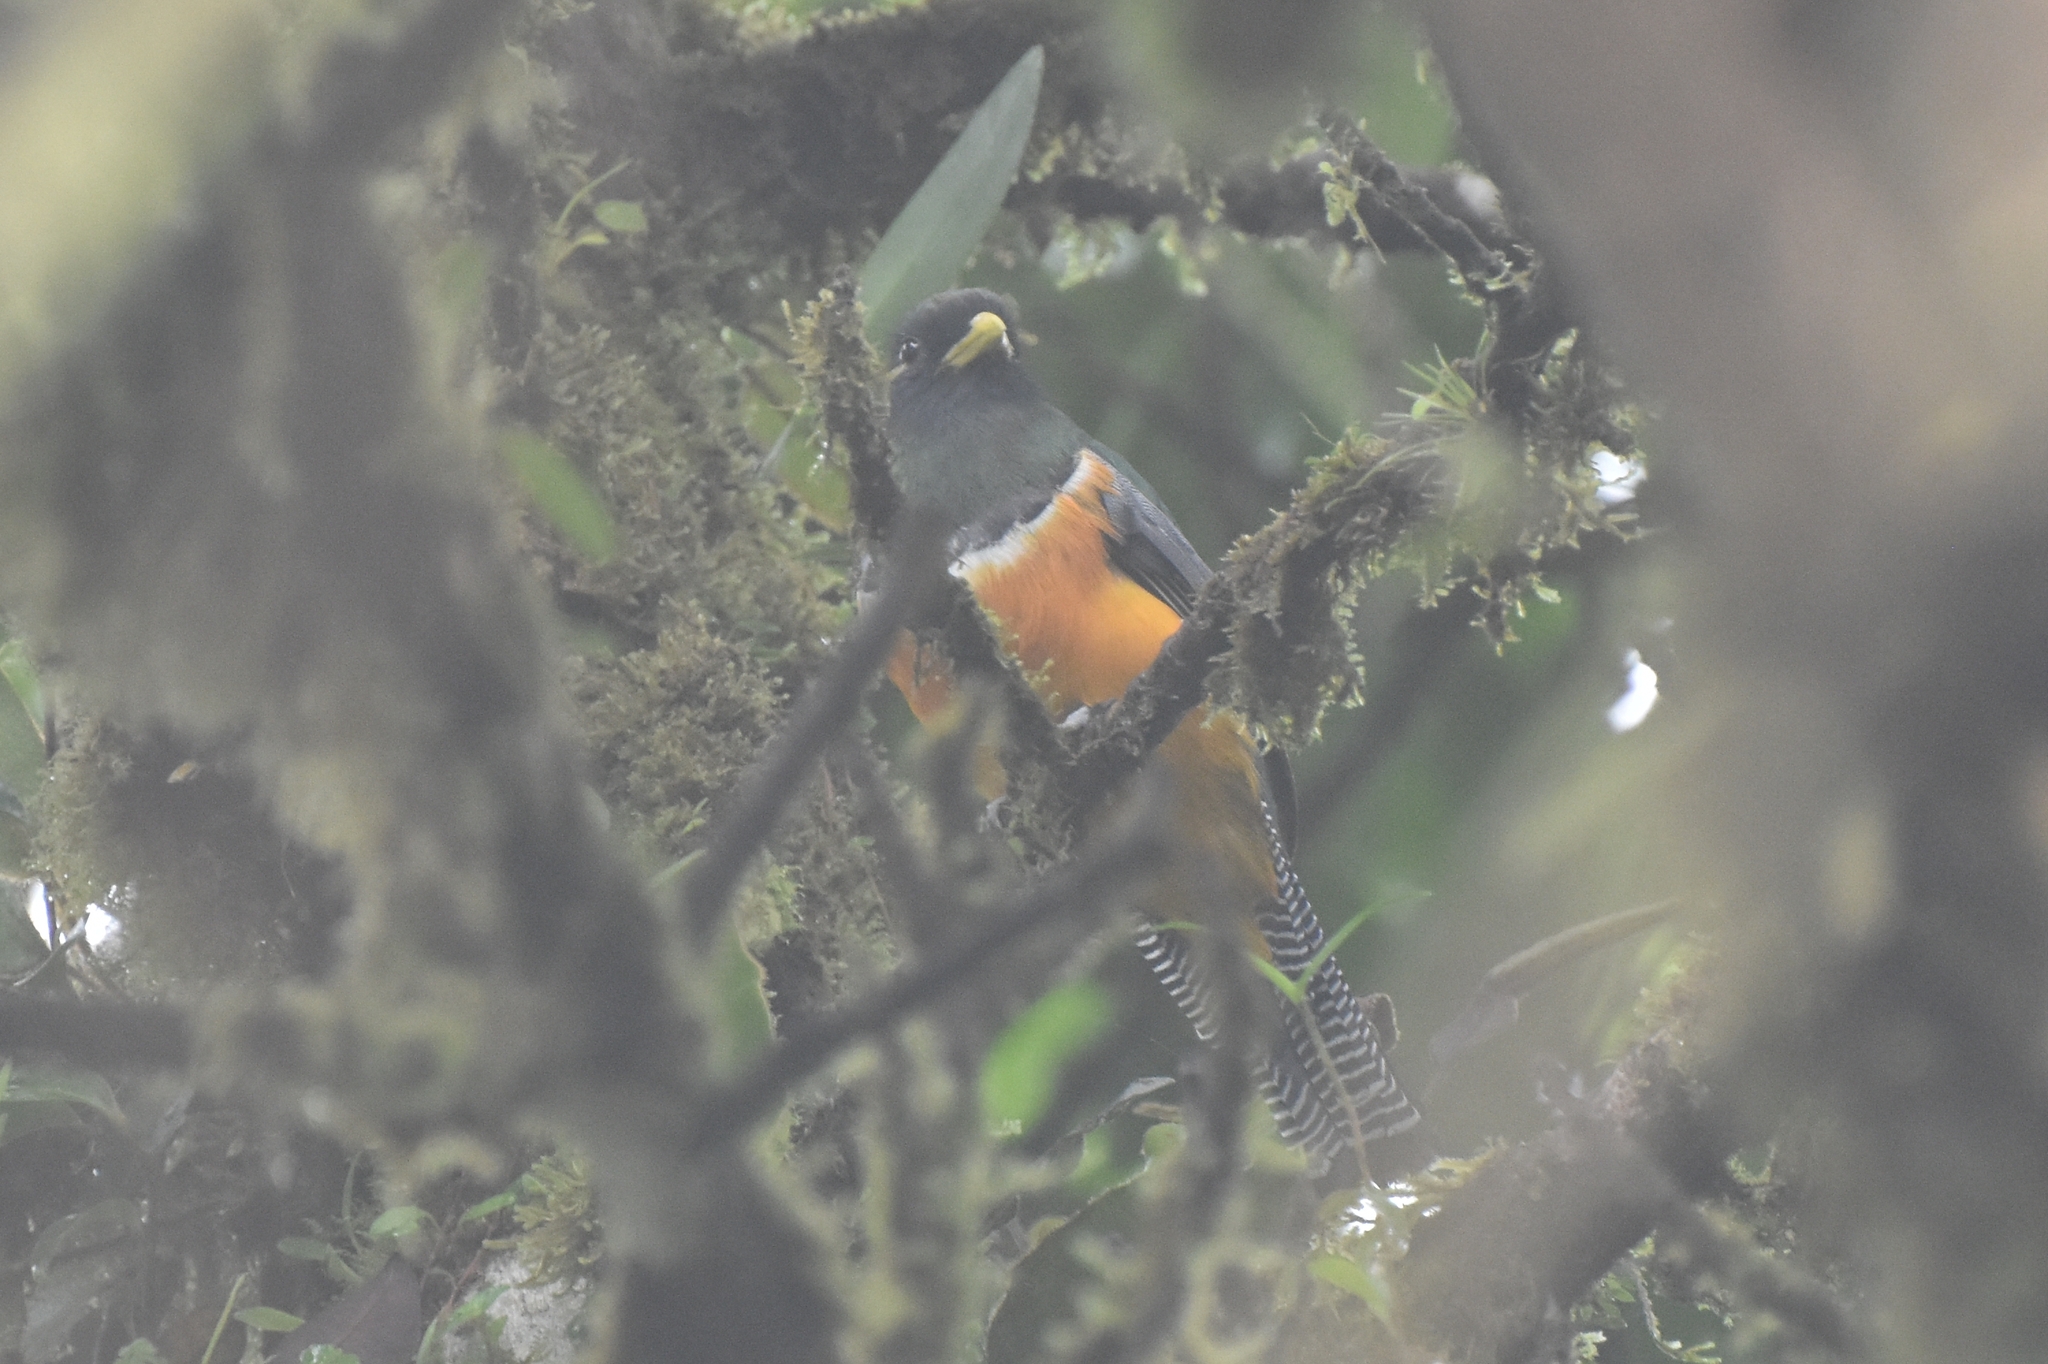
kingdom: Animalia
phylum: Chordata
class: Aves
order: Trogoniformes
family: Trogonidae
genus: Trogon
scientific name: Trogon collaris
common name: Collared trogon
